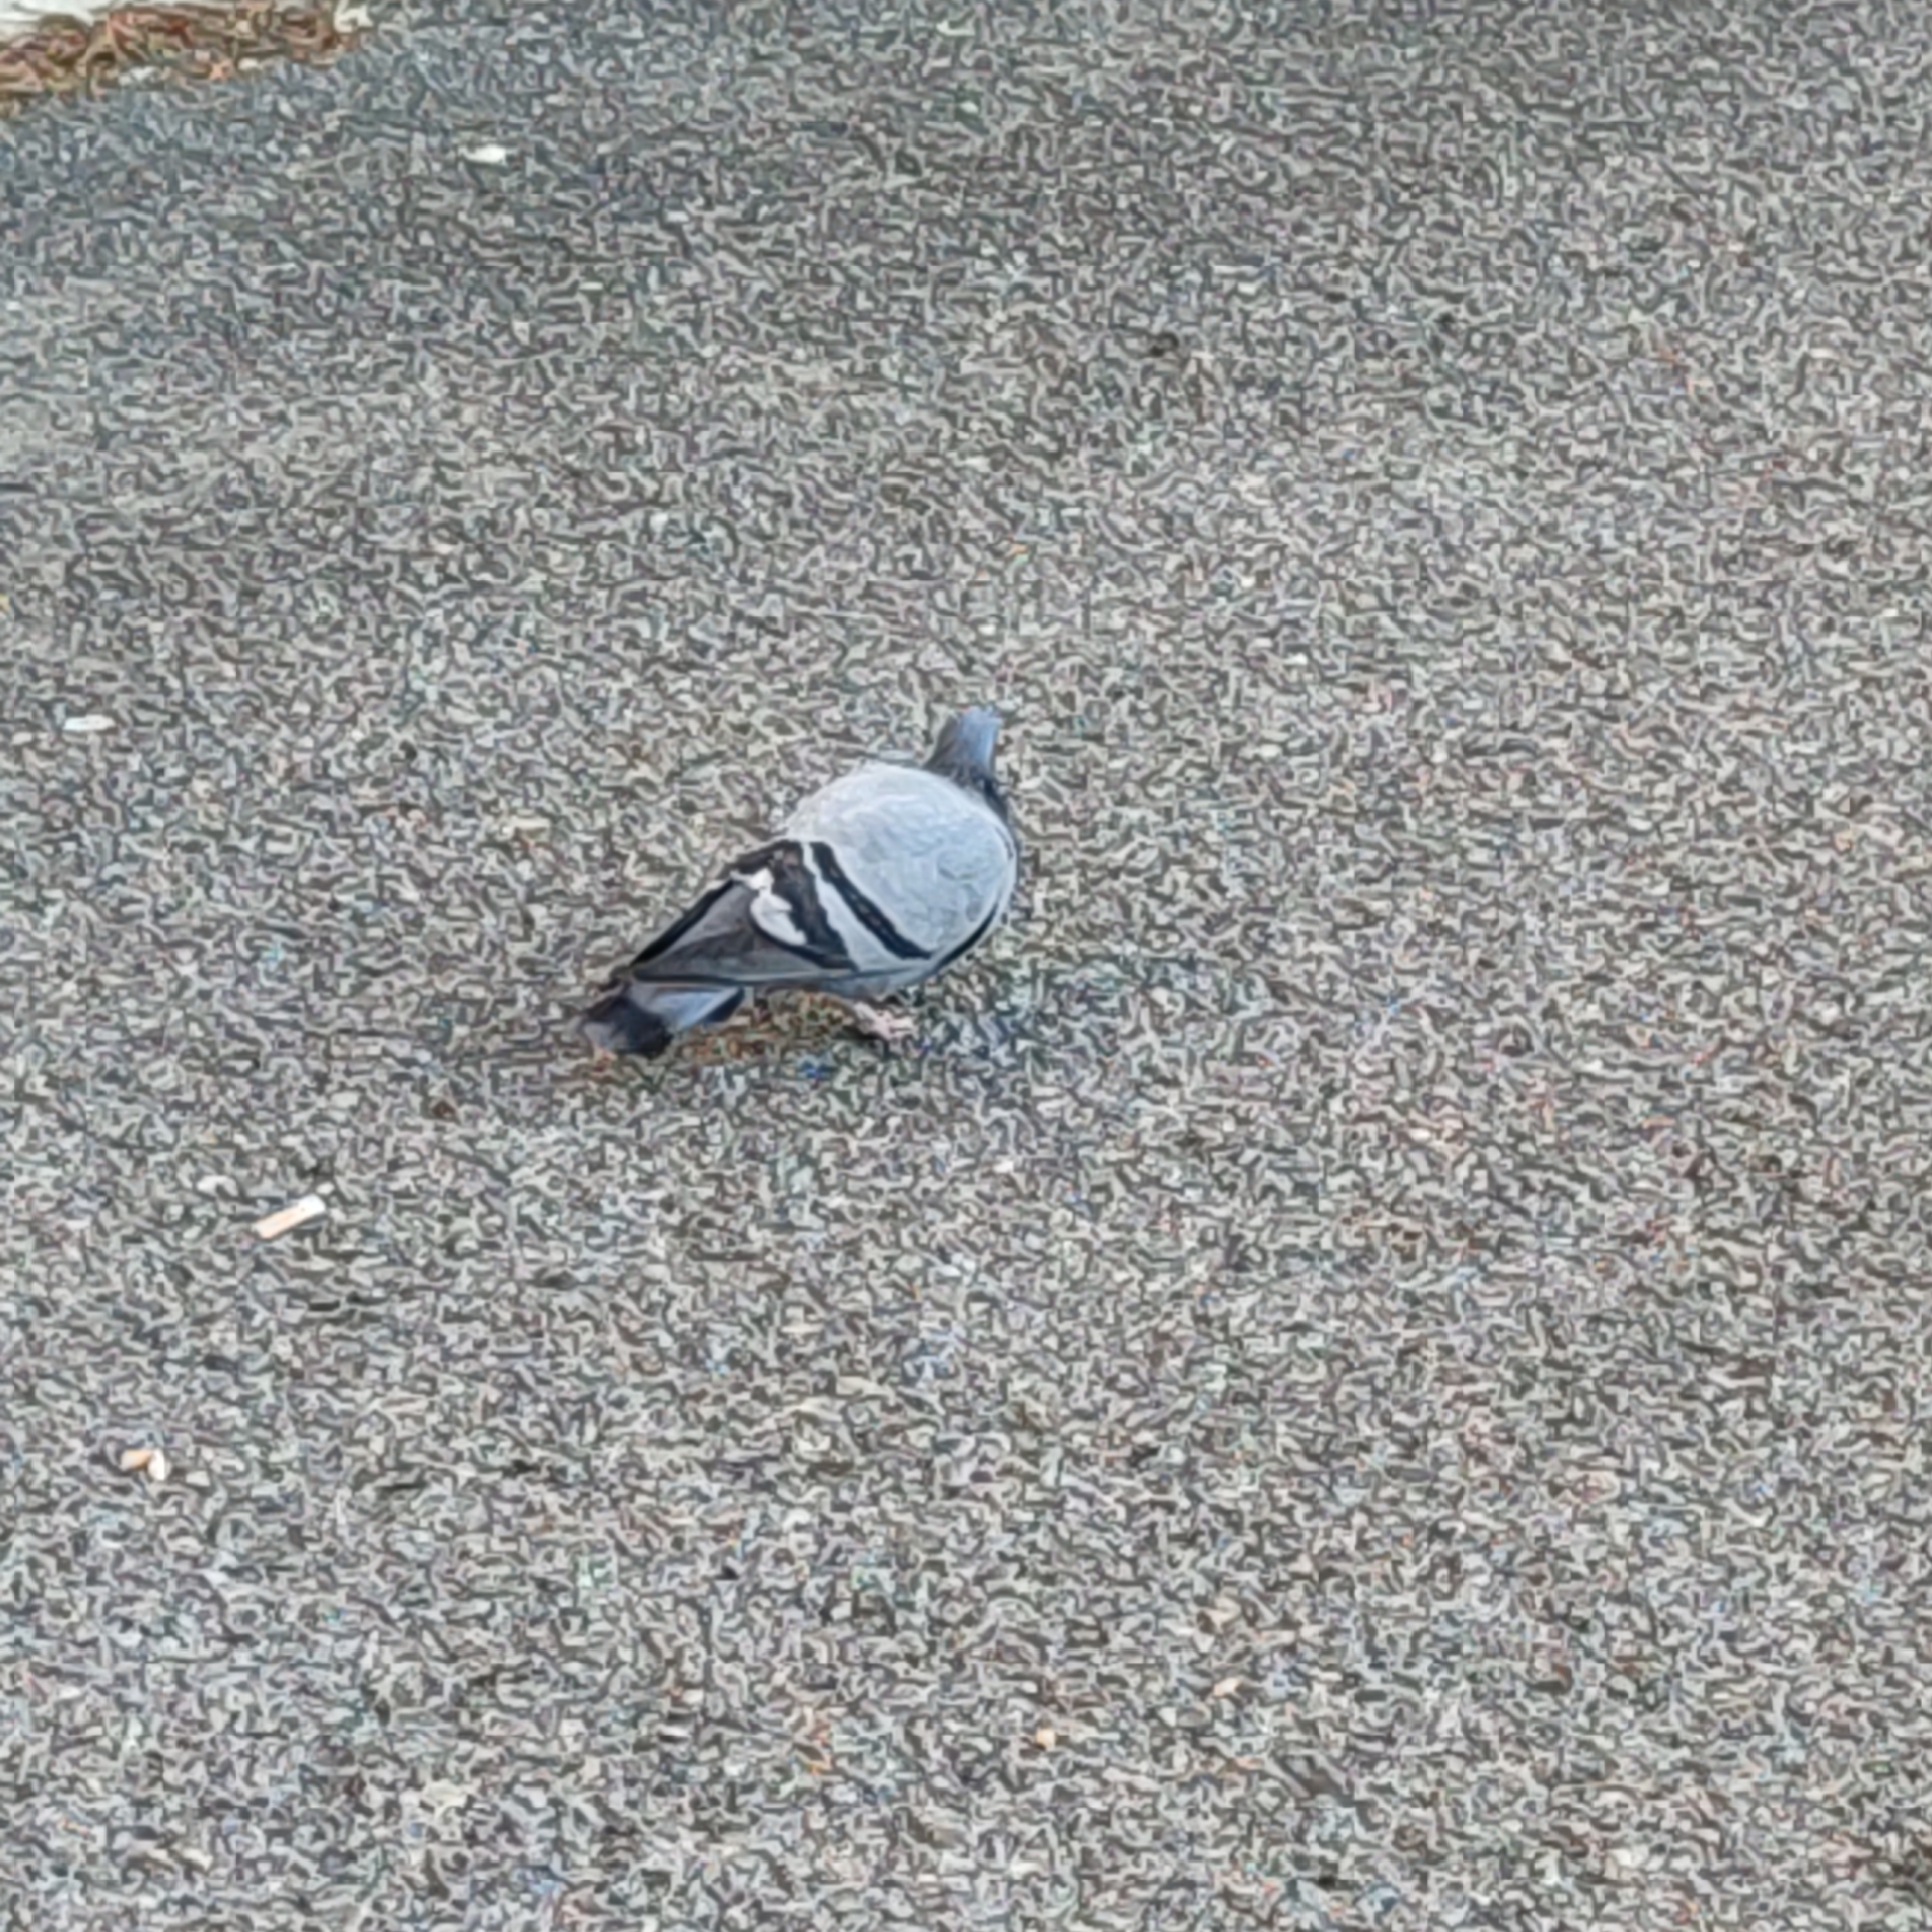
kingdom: Animalia
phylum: Chordata
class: Aves
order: Columbiformes
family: Columbidae
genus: Columba
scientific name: Columba livia
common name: Rock pigeon
